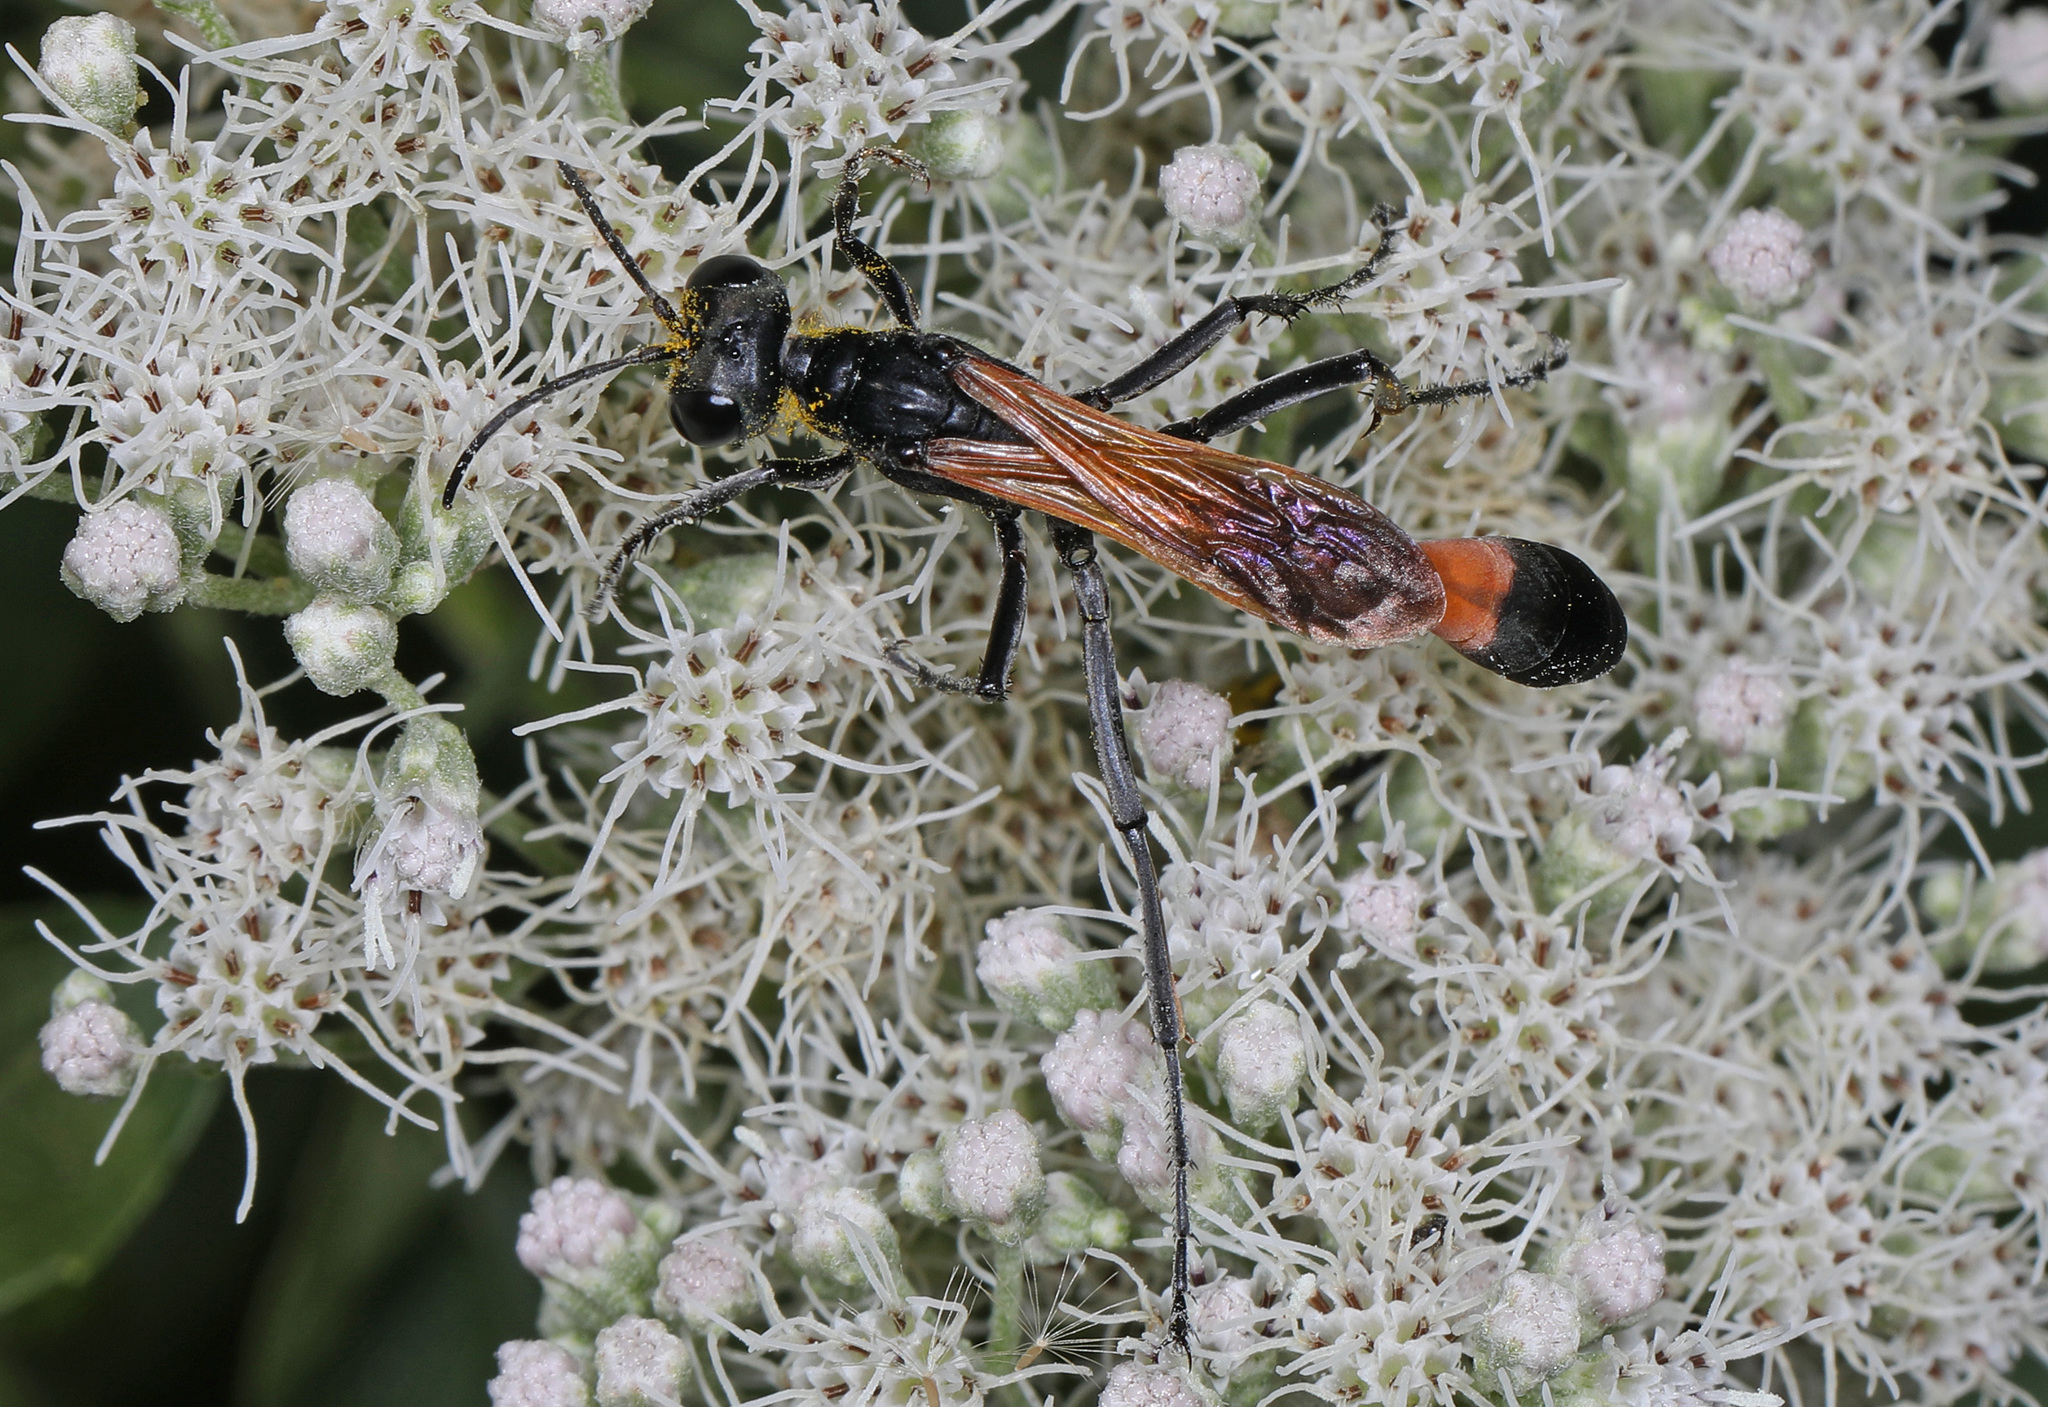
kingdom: Animalia
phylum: Arthropoda
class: Insecta
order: Hymenoptera
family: Sphecidae
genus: Ammophila
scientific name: Ammophila pictipennis
